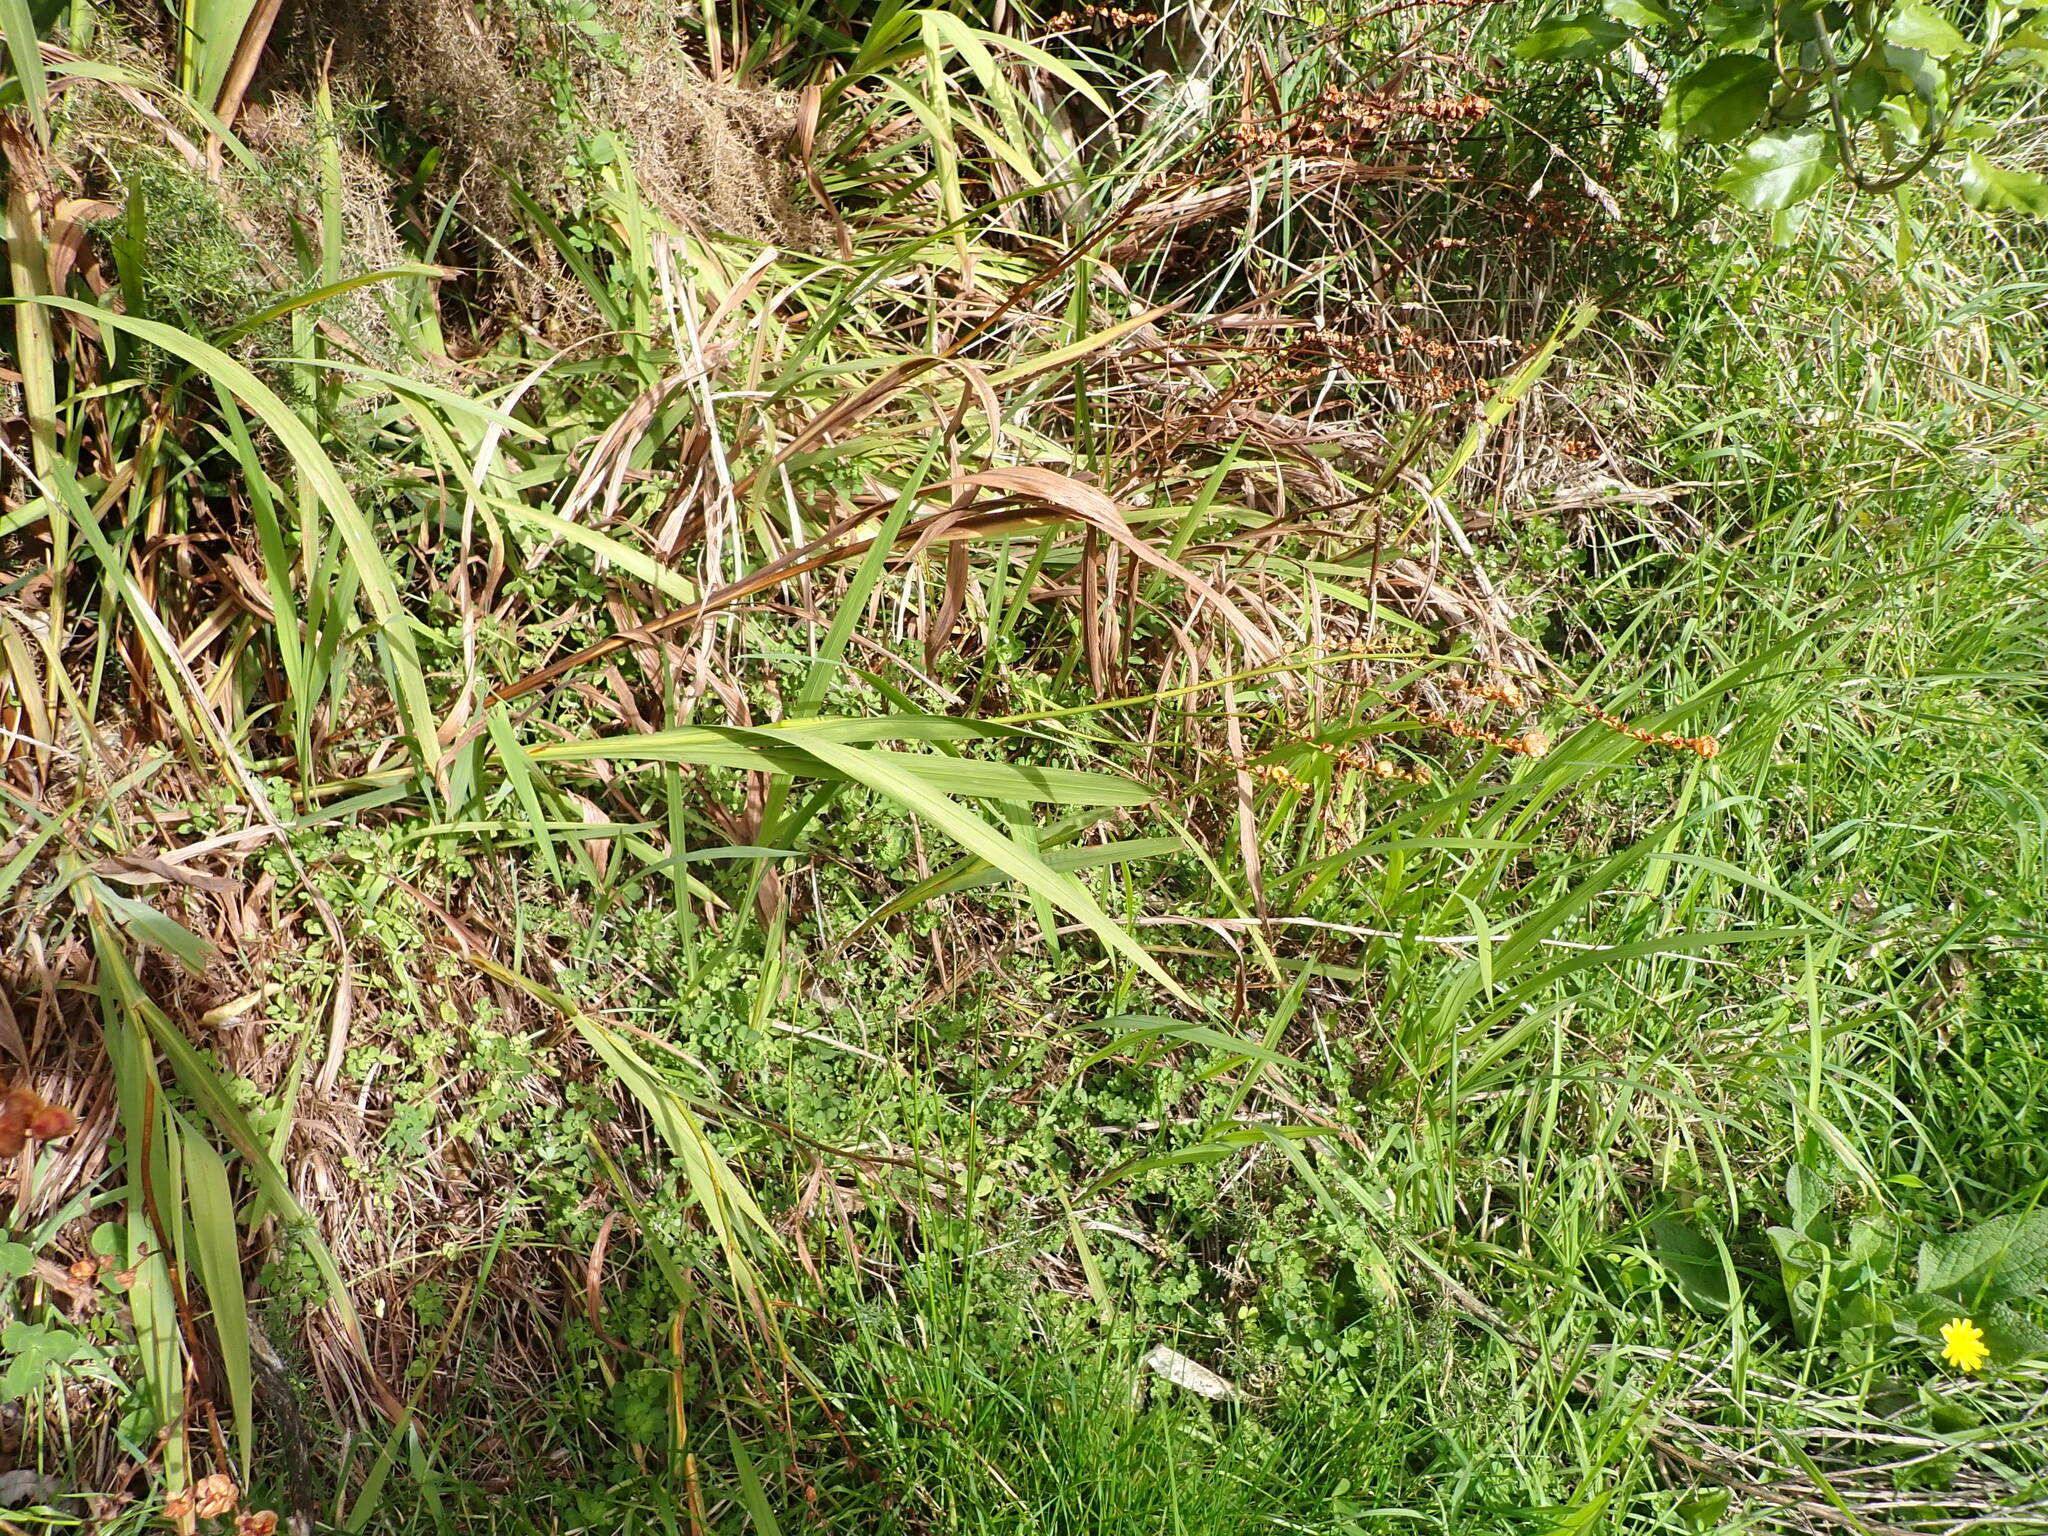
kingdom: Plantae
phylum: Tracheophyta
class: Liliopsida
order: Asparagales
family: Iridaceae
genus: Crocosmia
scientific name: Crocosmia crocosmiiflora
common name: Montbretia
